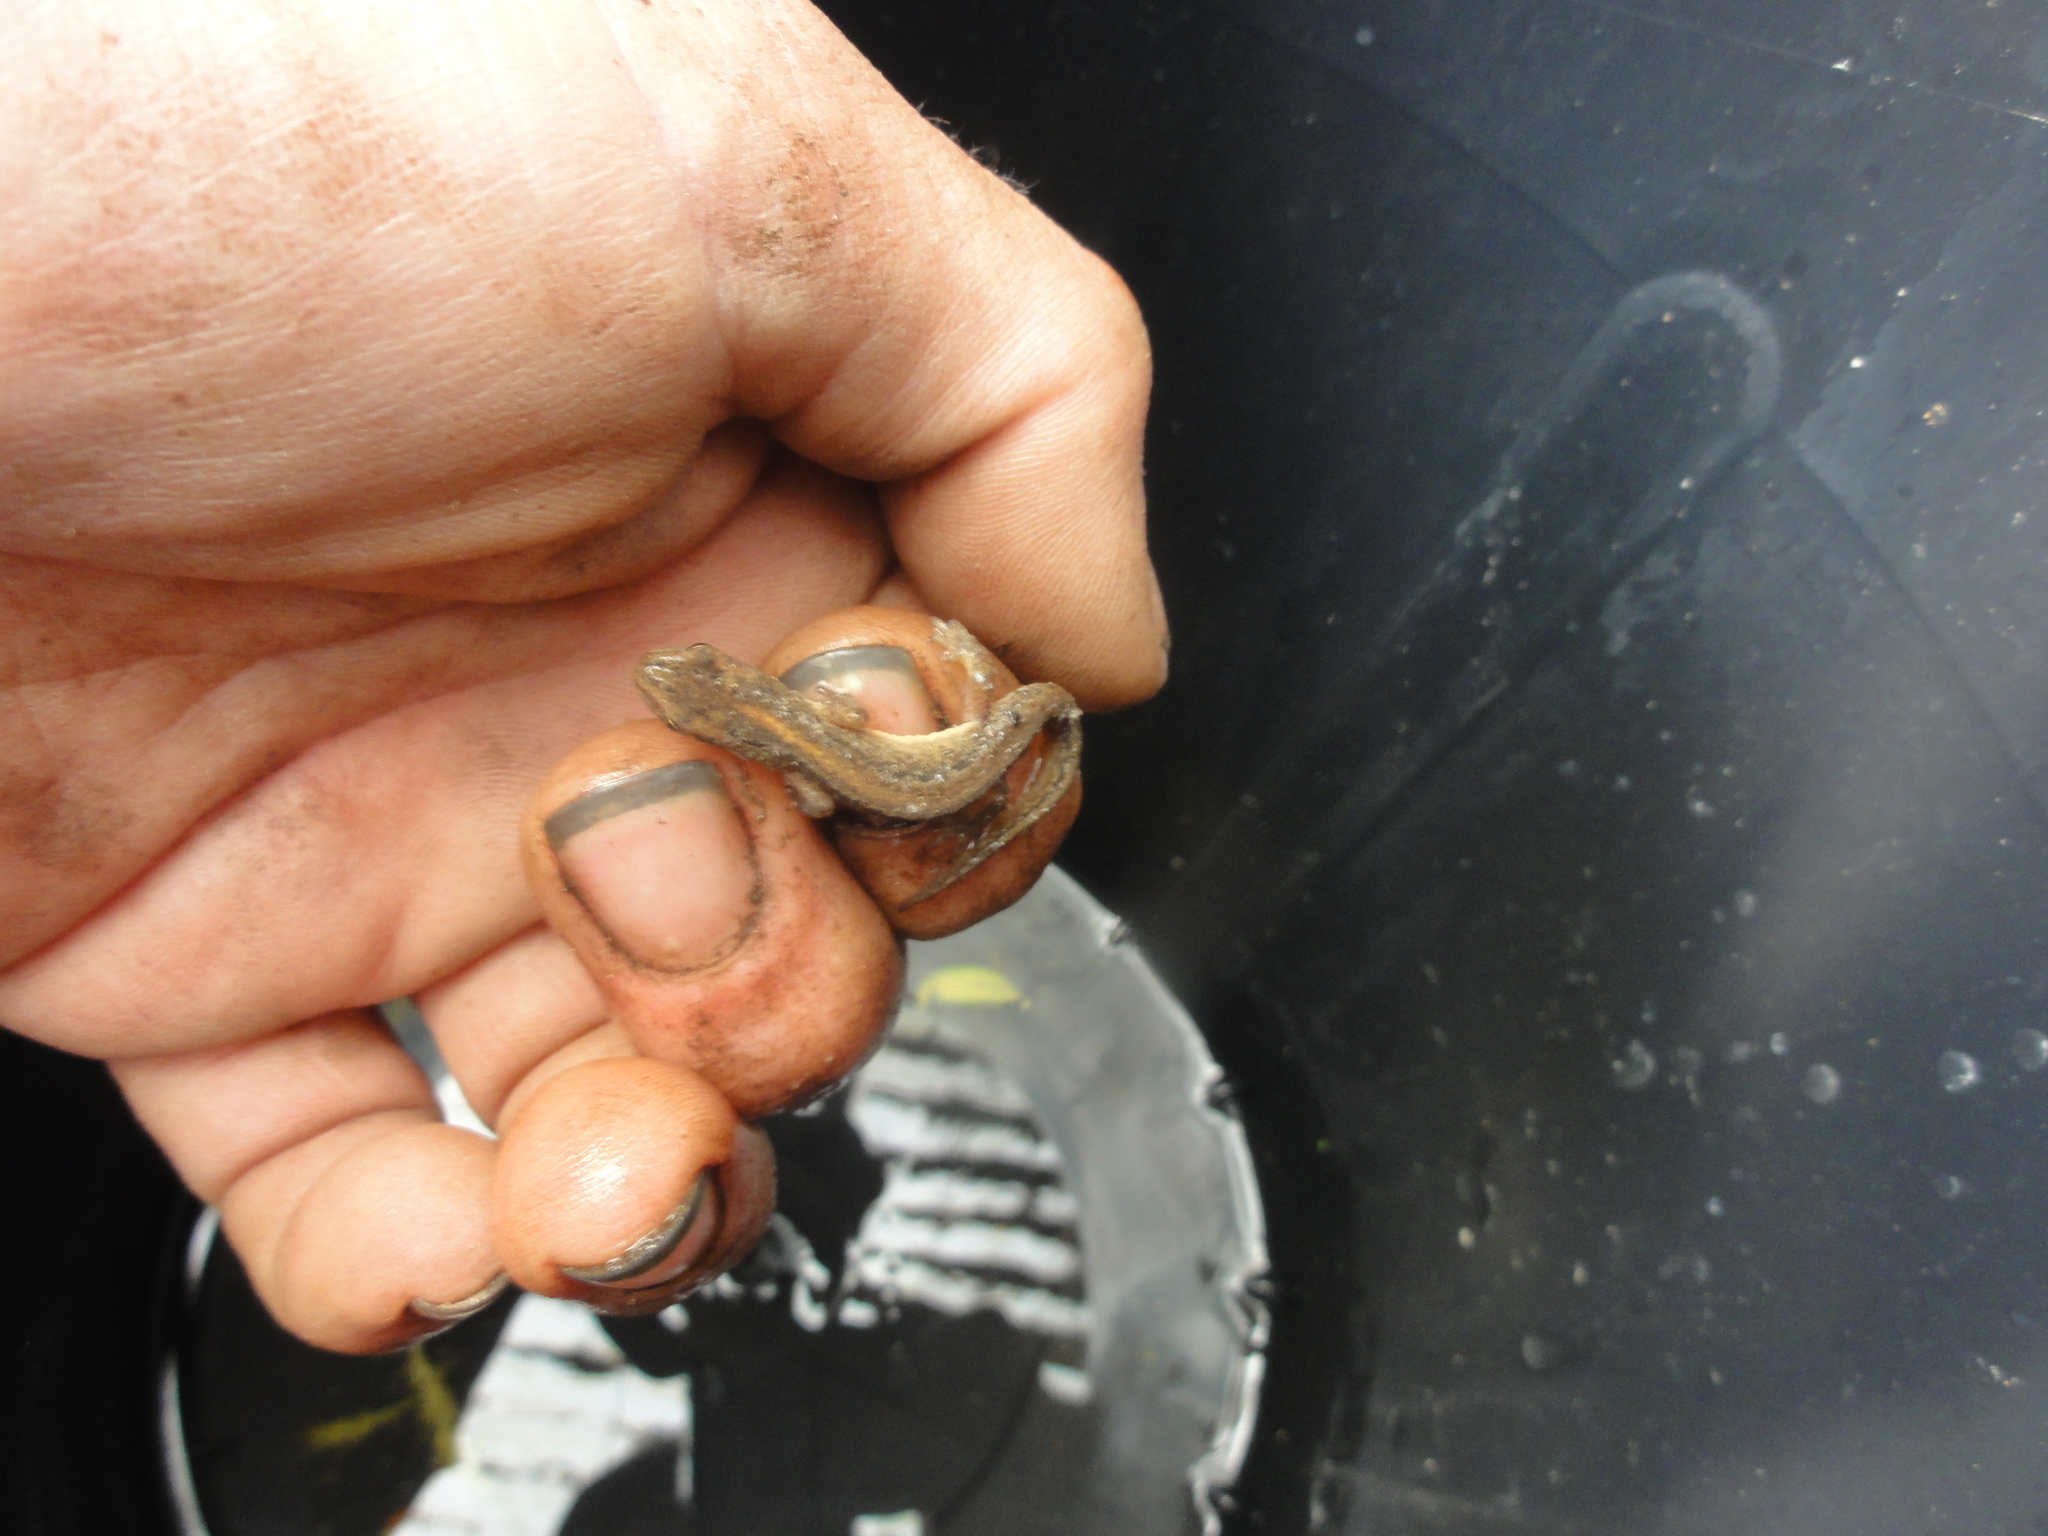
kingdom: Animalia
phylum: Chordata
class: Amphibia
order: Caudata
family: Salamandridae
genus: Lissotriton
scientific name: Lissotriton vulgaris
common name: Smooth newt
